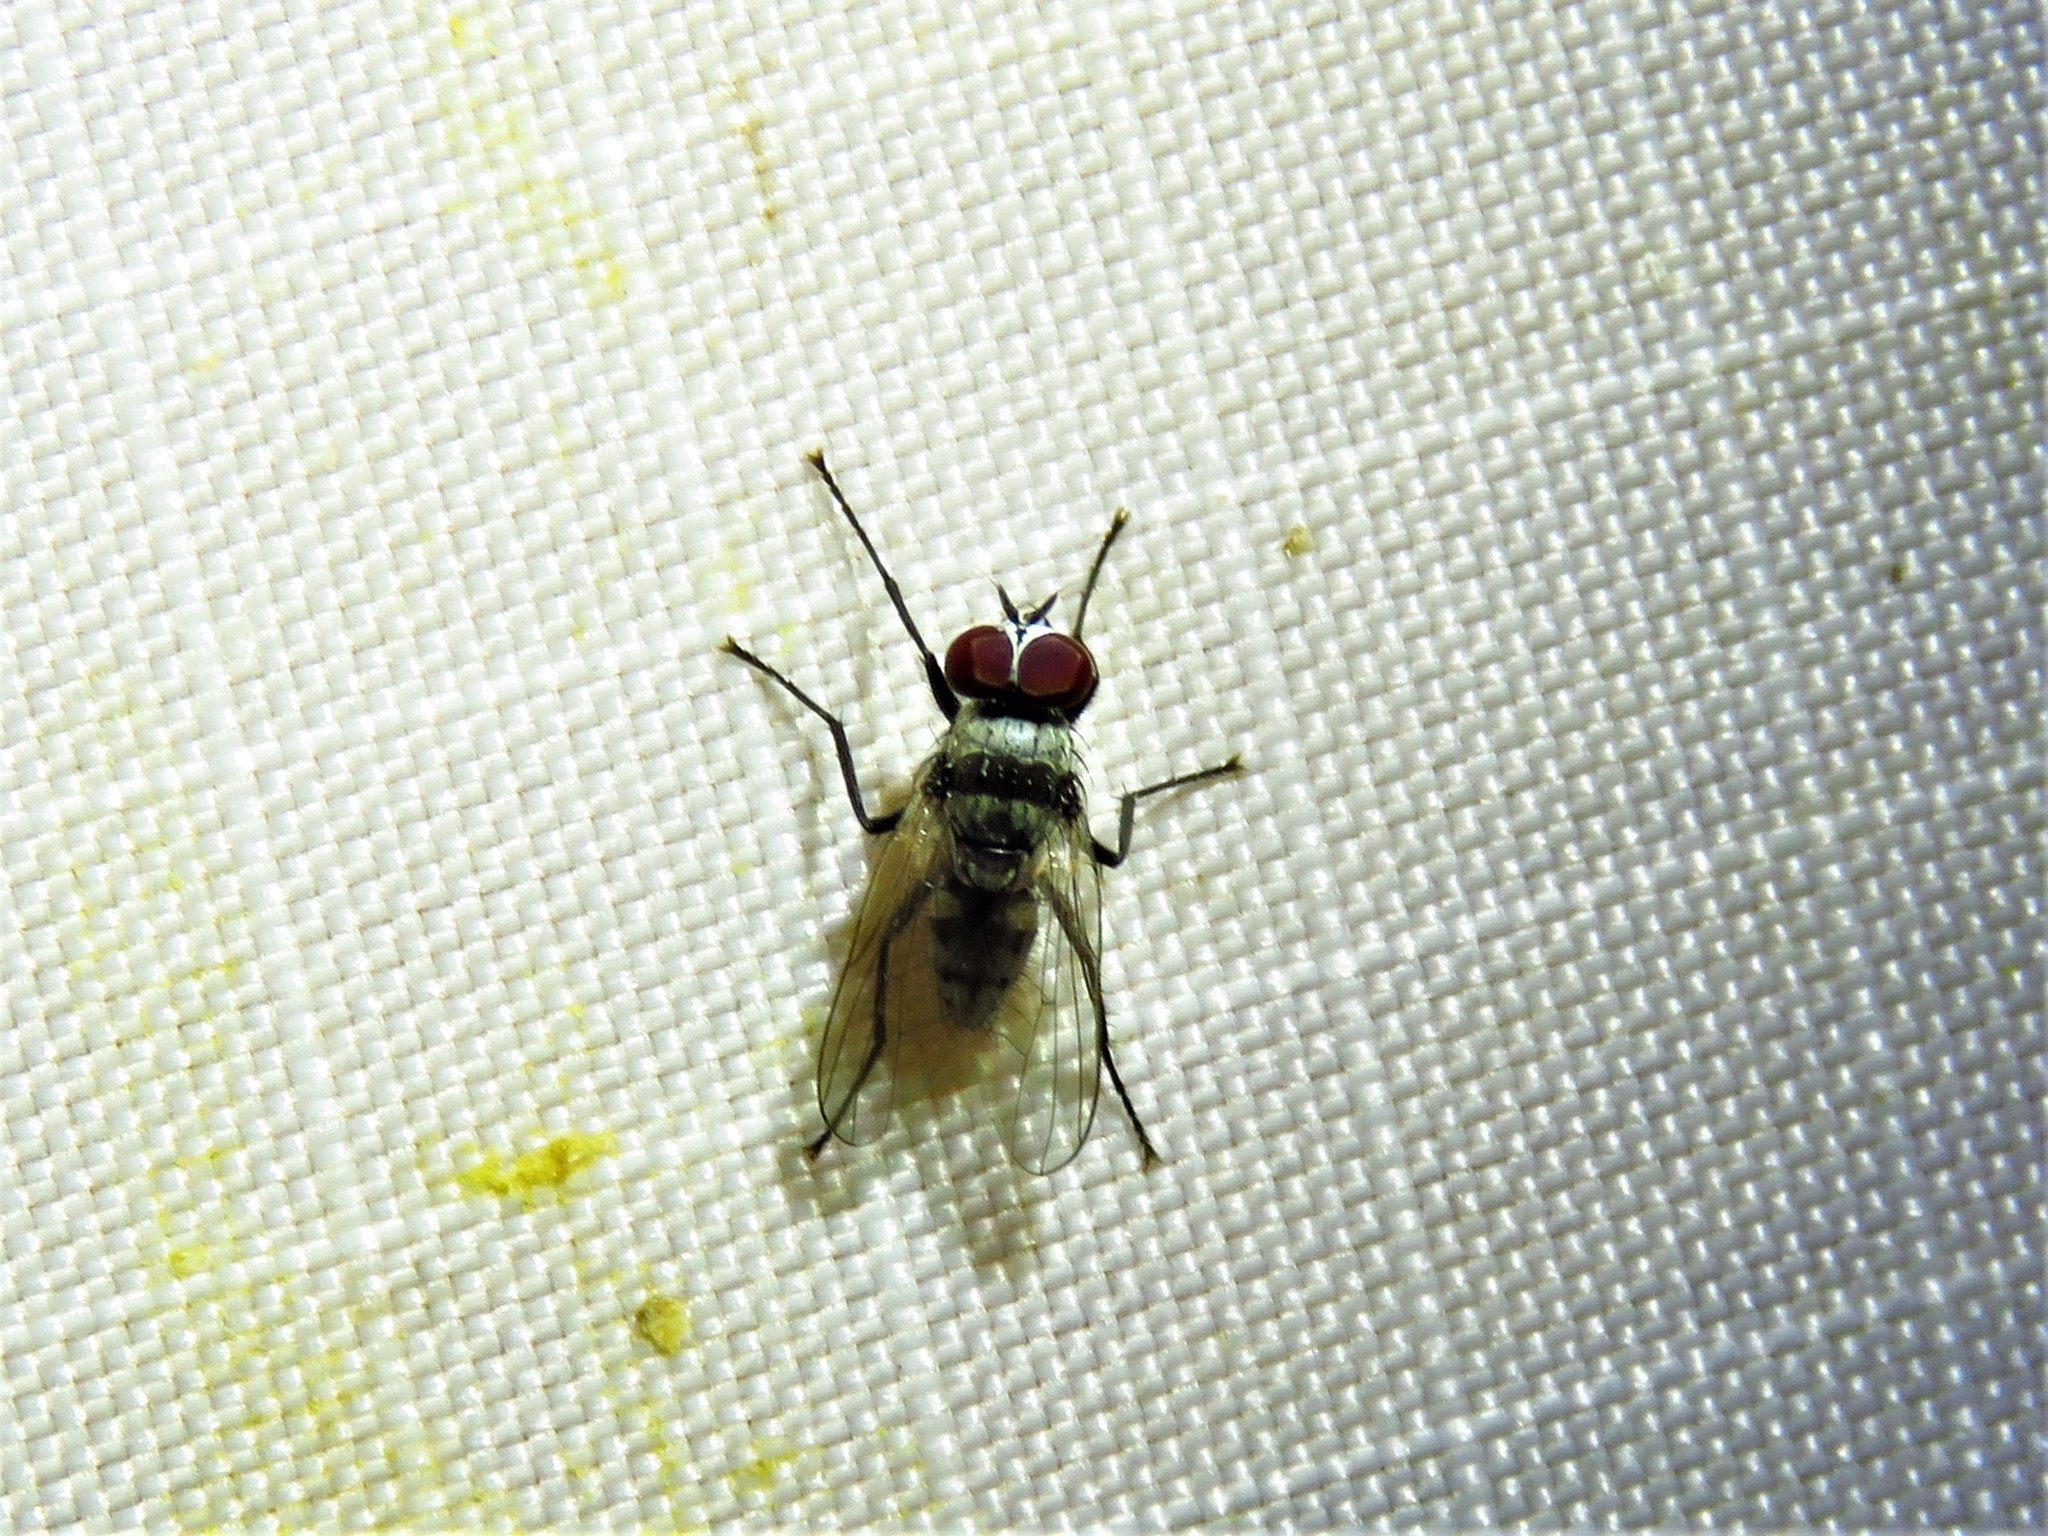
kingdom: Animalia
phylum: Arthropoda
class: Insecta
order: Diptera
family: Anthomyiidae
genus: Anthomyia
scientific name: Anthomyia illocata
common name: Fly
